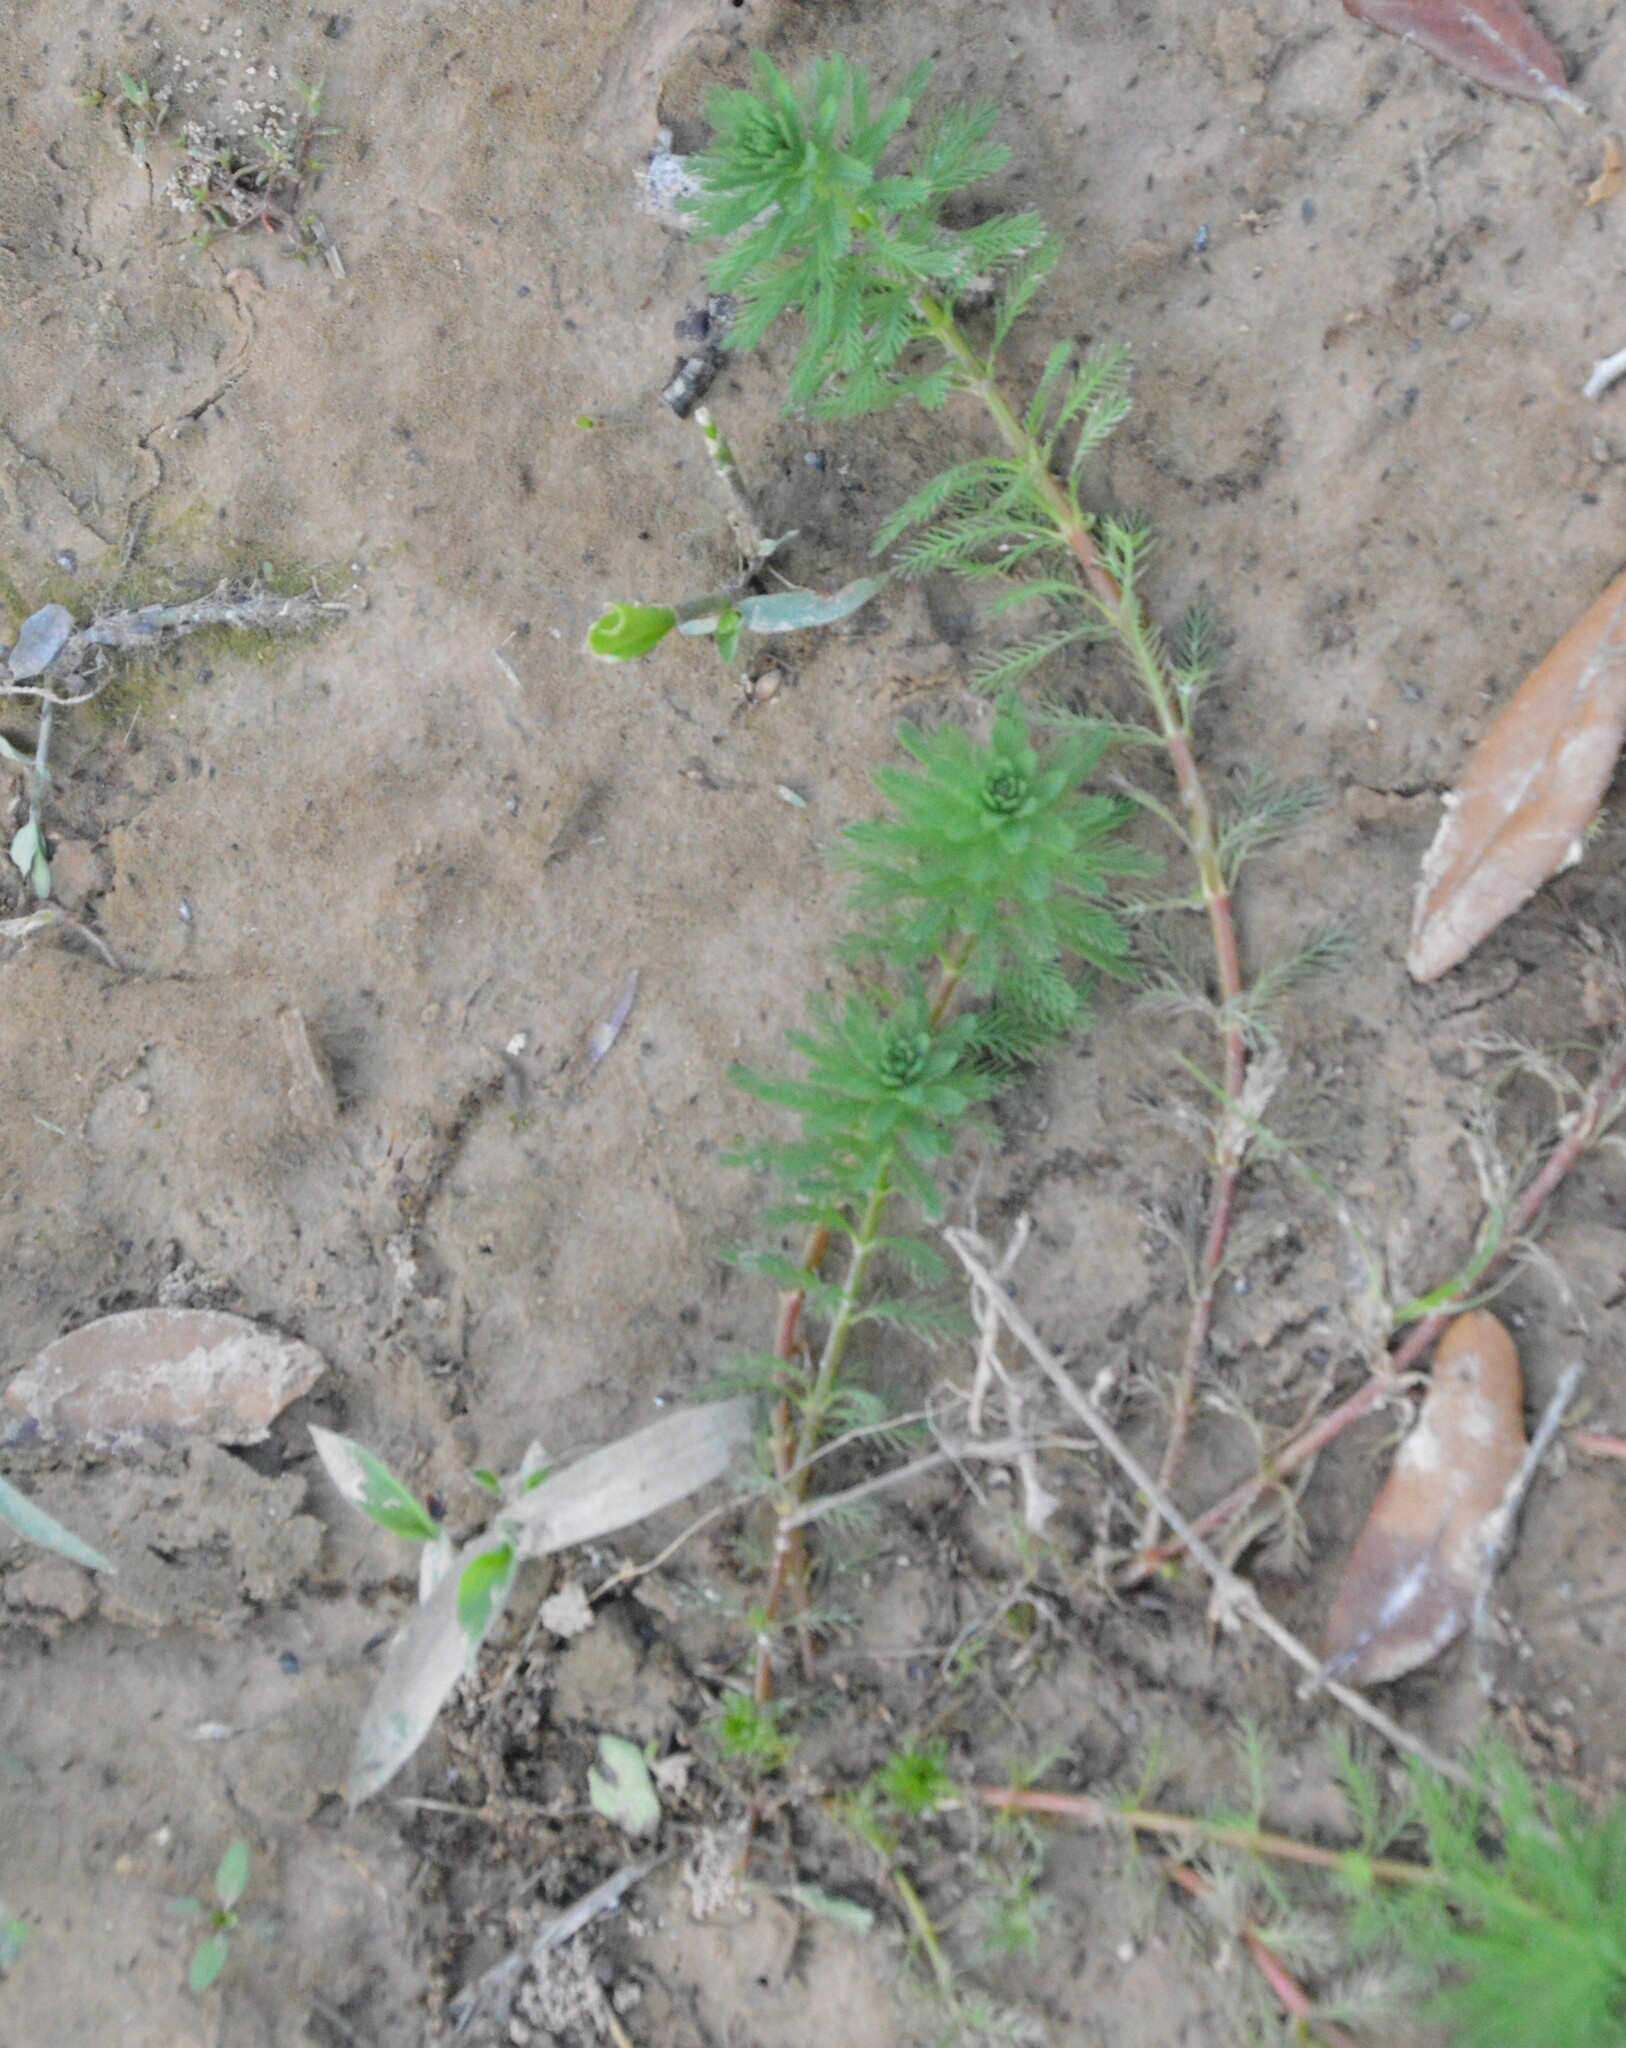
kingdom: Plantae
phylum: Tracheophyta
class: Magnoliopsida
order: Saxifragales
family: Haloragaceae
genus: Myriophyllum
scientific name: Myriophyllum aquaticum
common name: Parrot's feather
